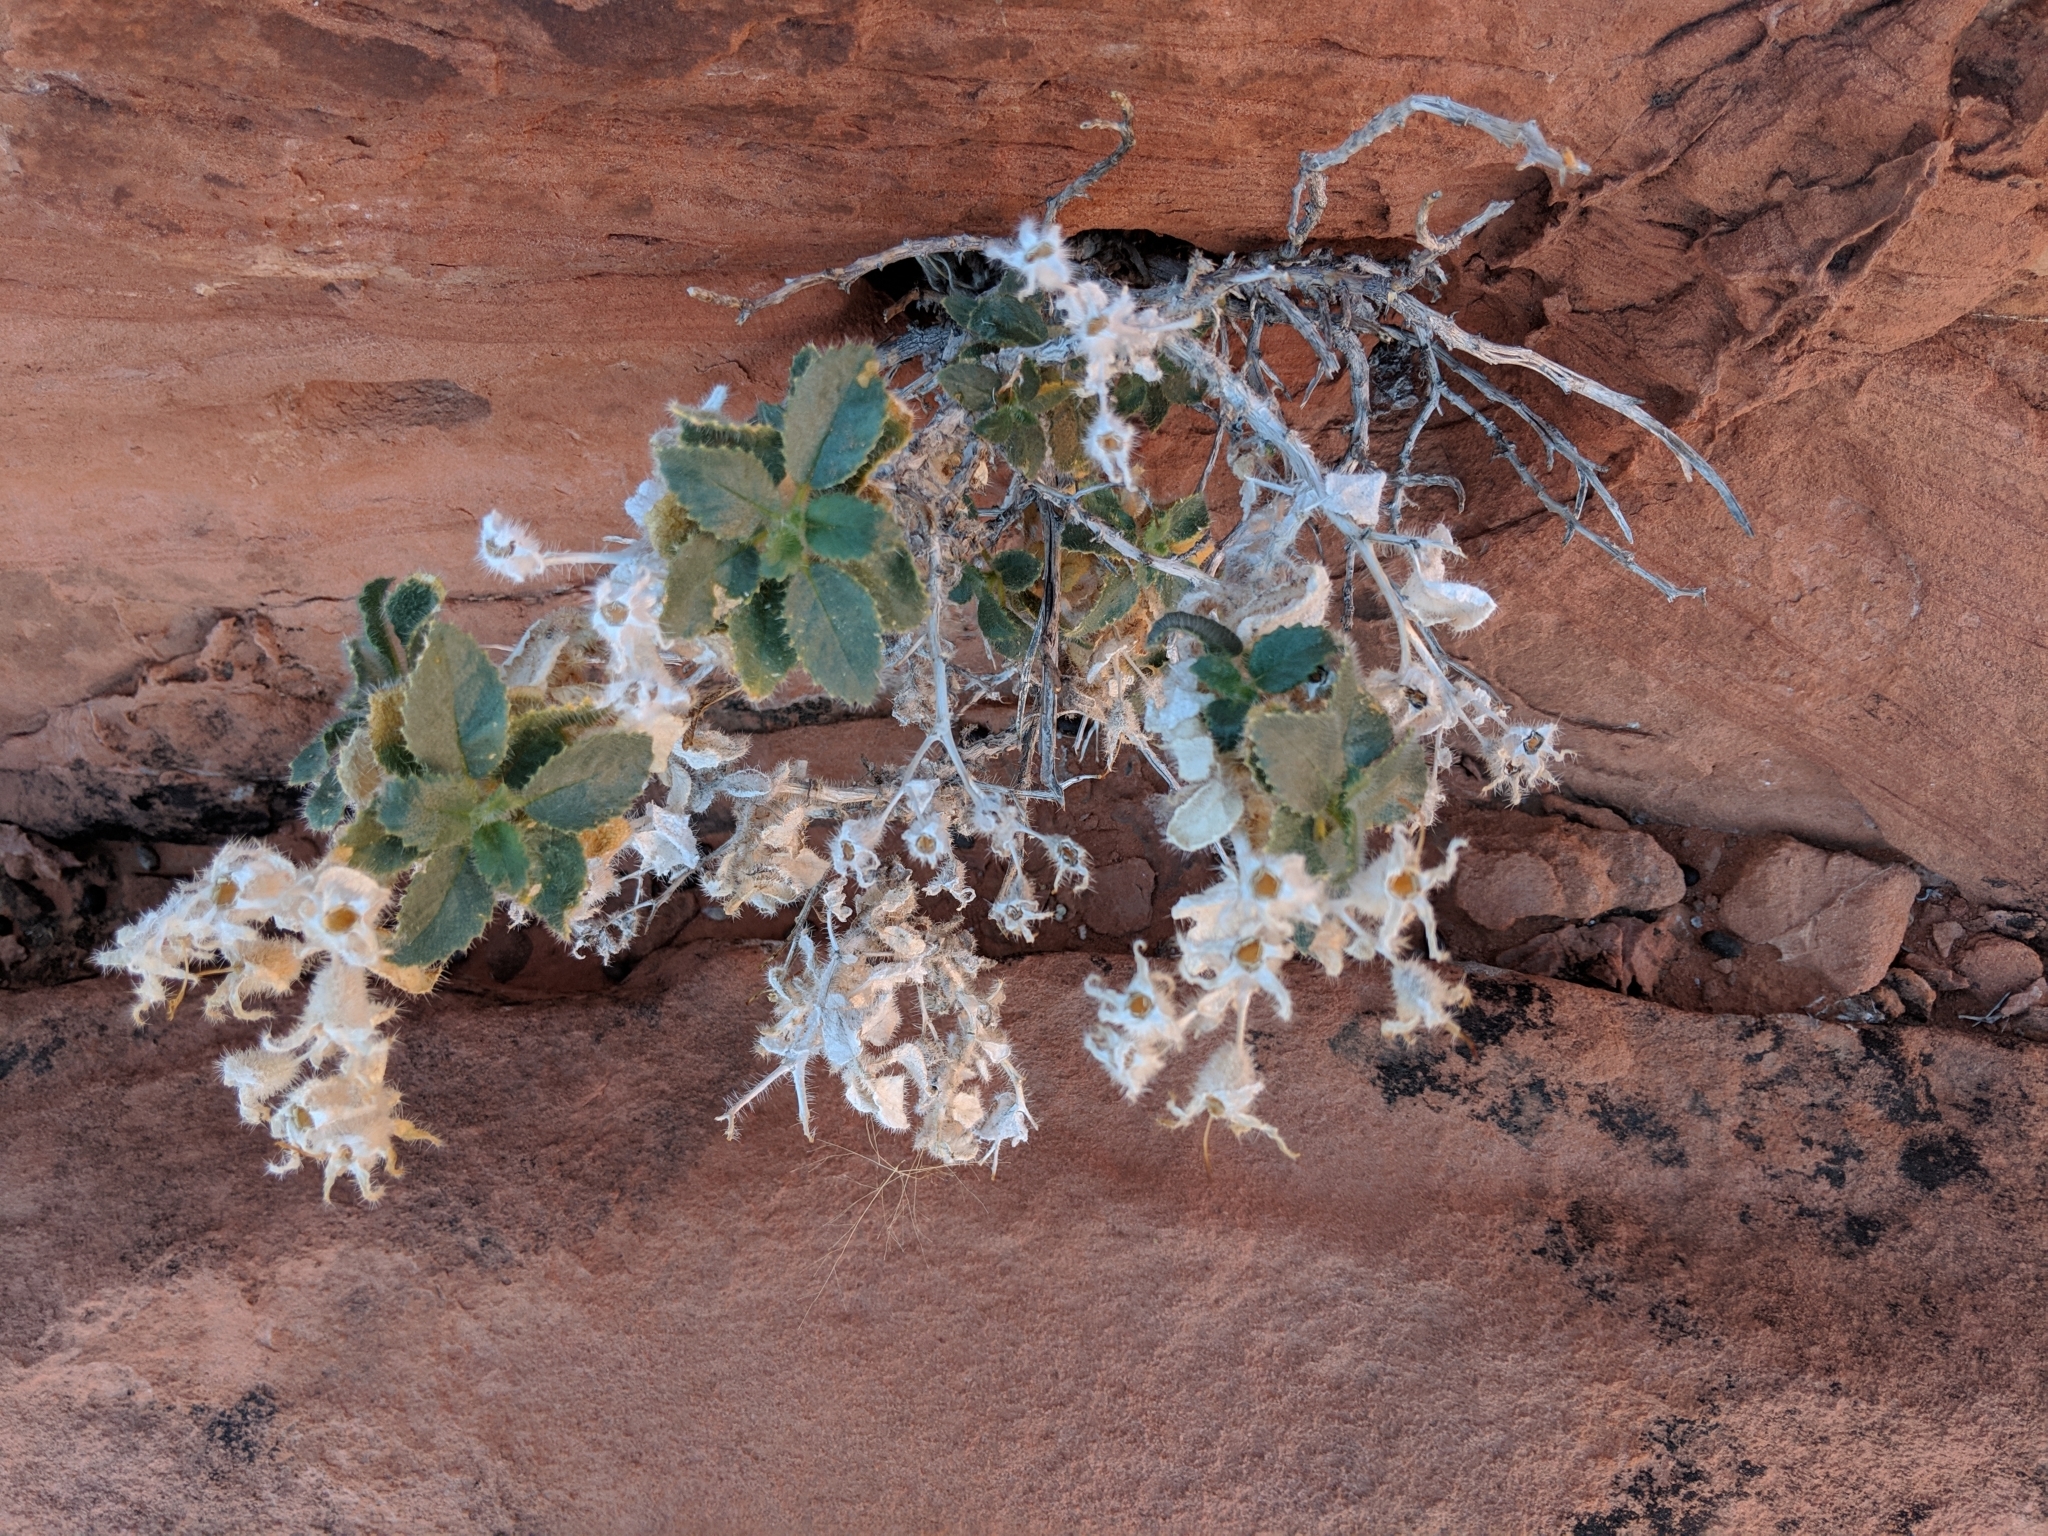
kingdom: Plantae
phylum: Tracheophyta
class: Magnoliopsida
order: Cornales
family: Loasaceae
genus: Eucnide
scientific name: Eucnide urens
